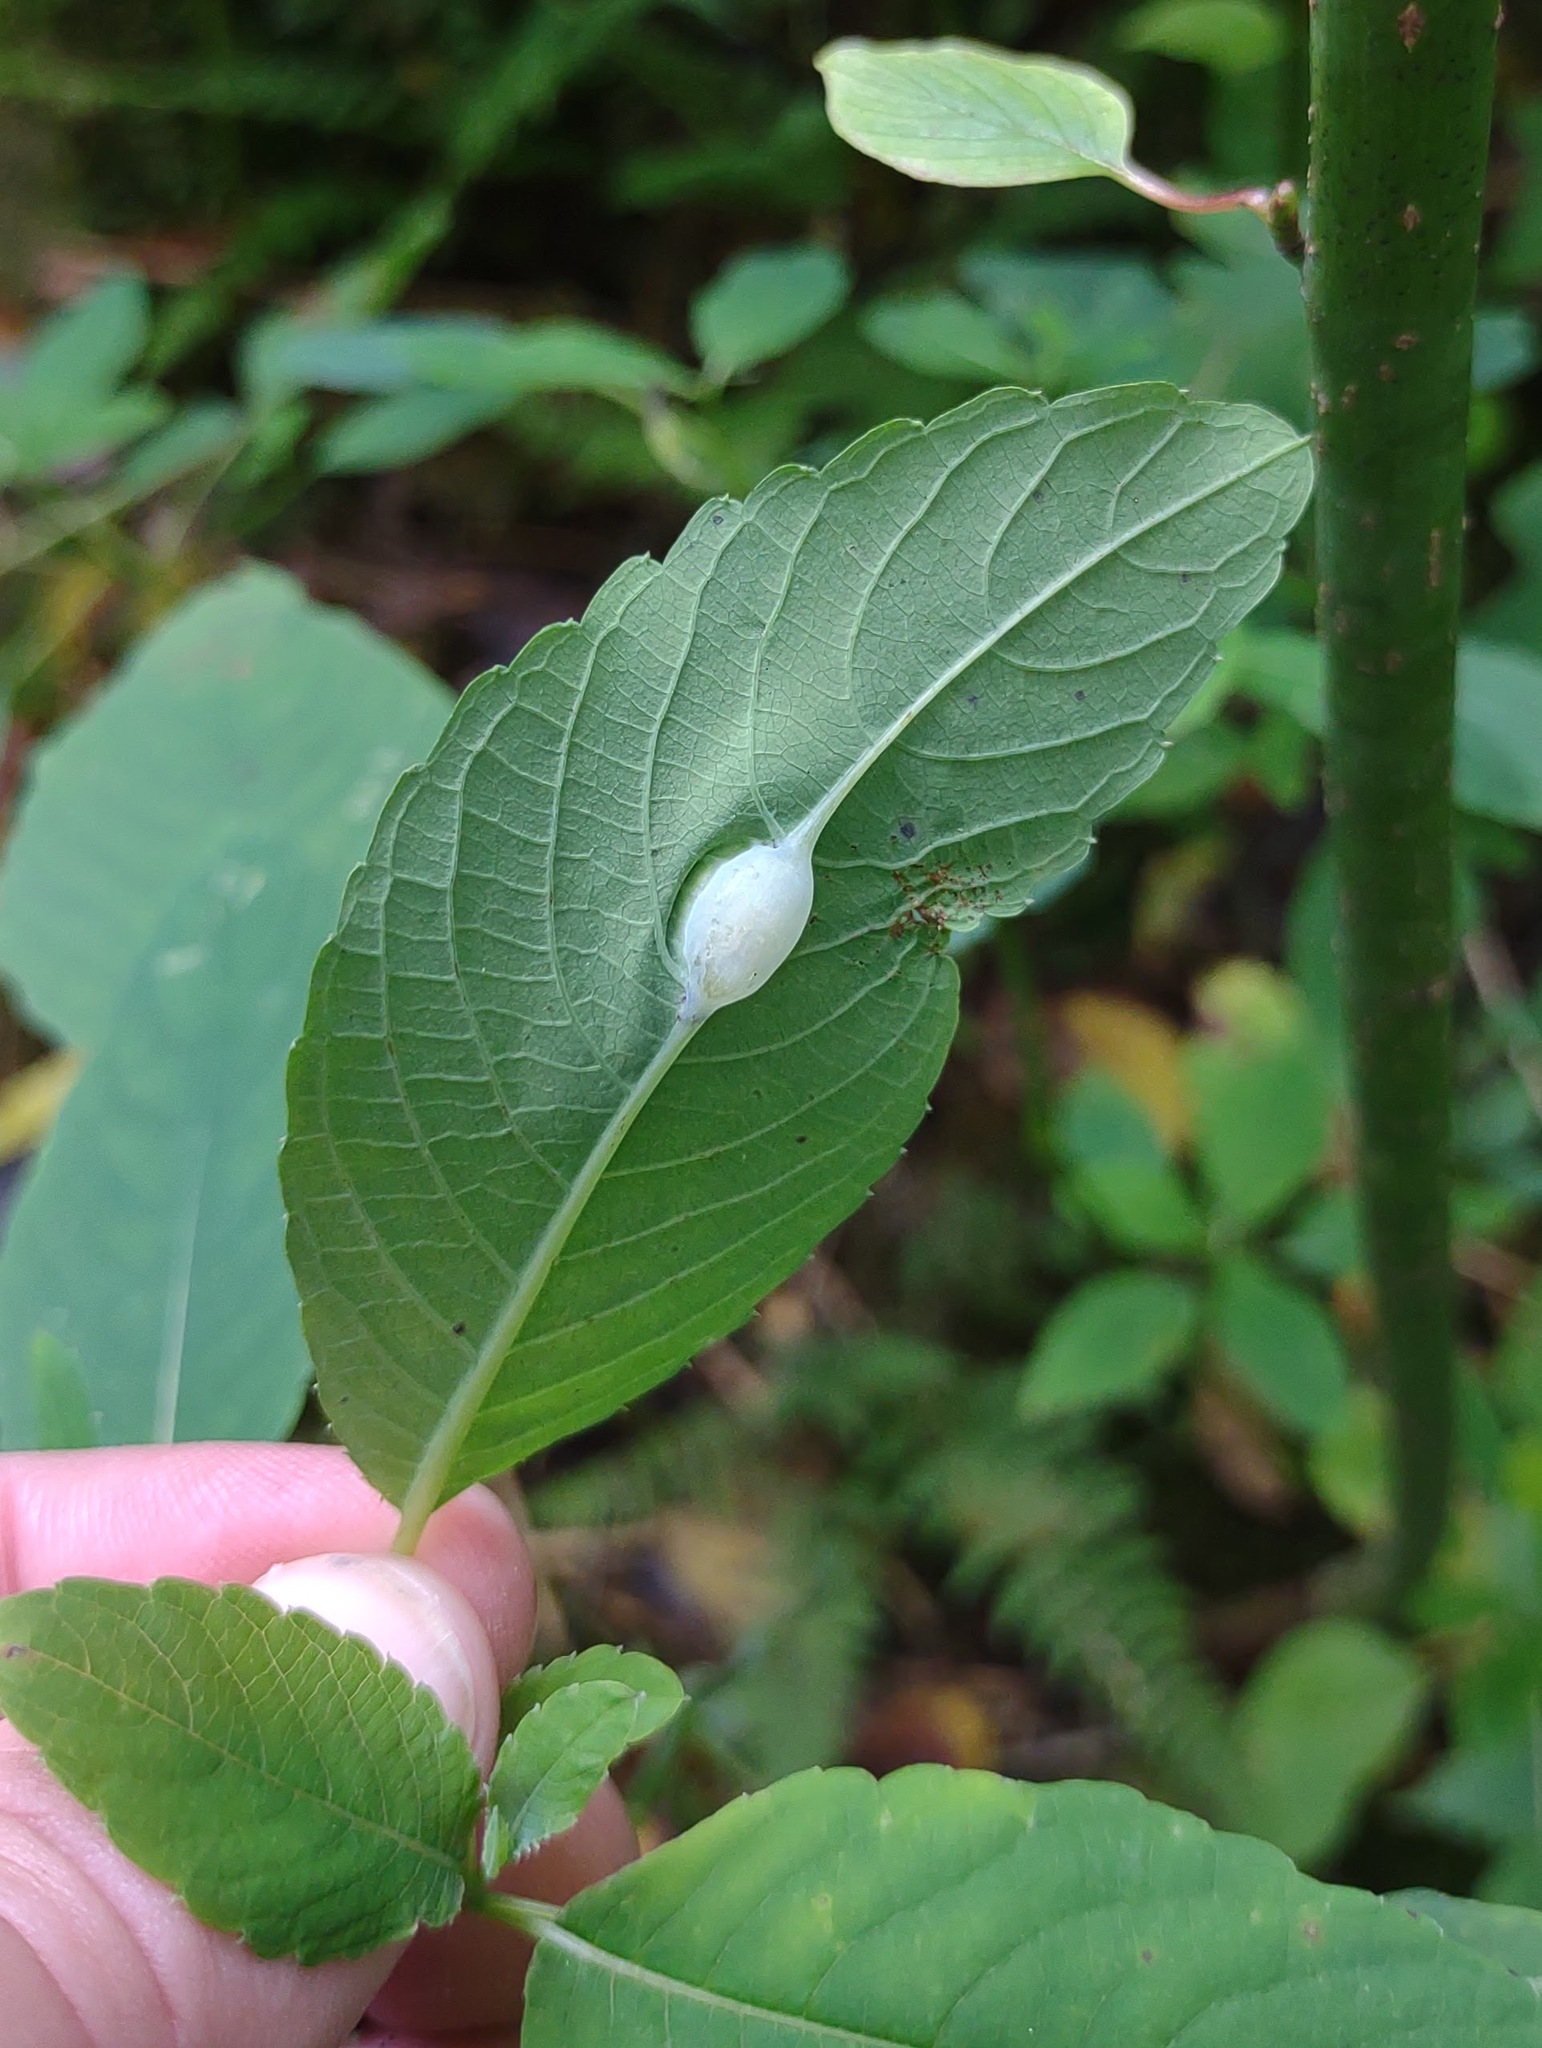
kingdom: Animalia
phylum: Arthropoda
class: Insecta
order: Diptera
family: Cecidomyiidae
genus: Neolasioptera
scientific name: Neolasioptera impatientifolia
